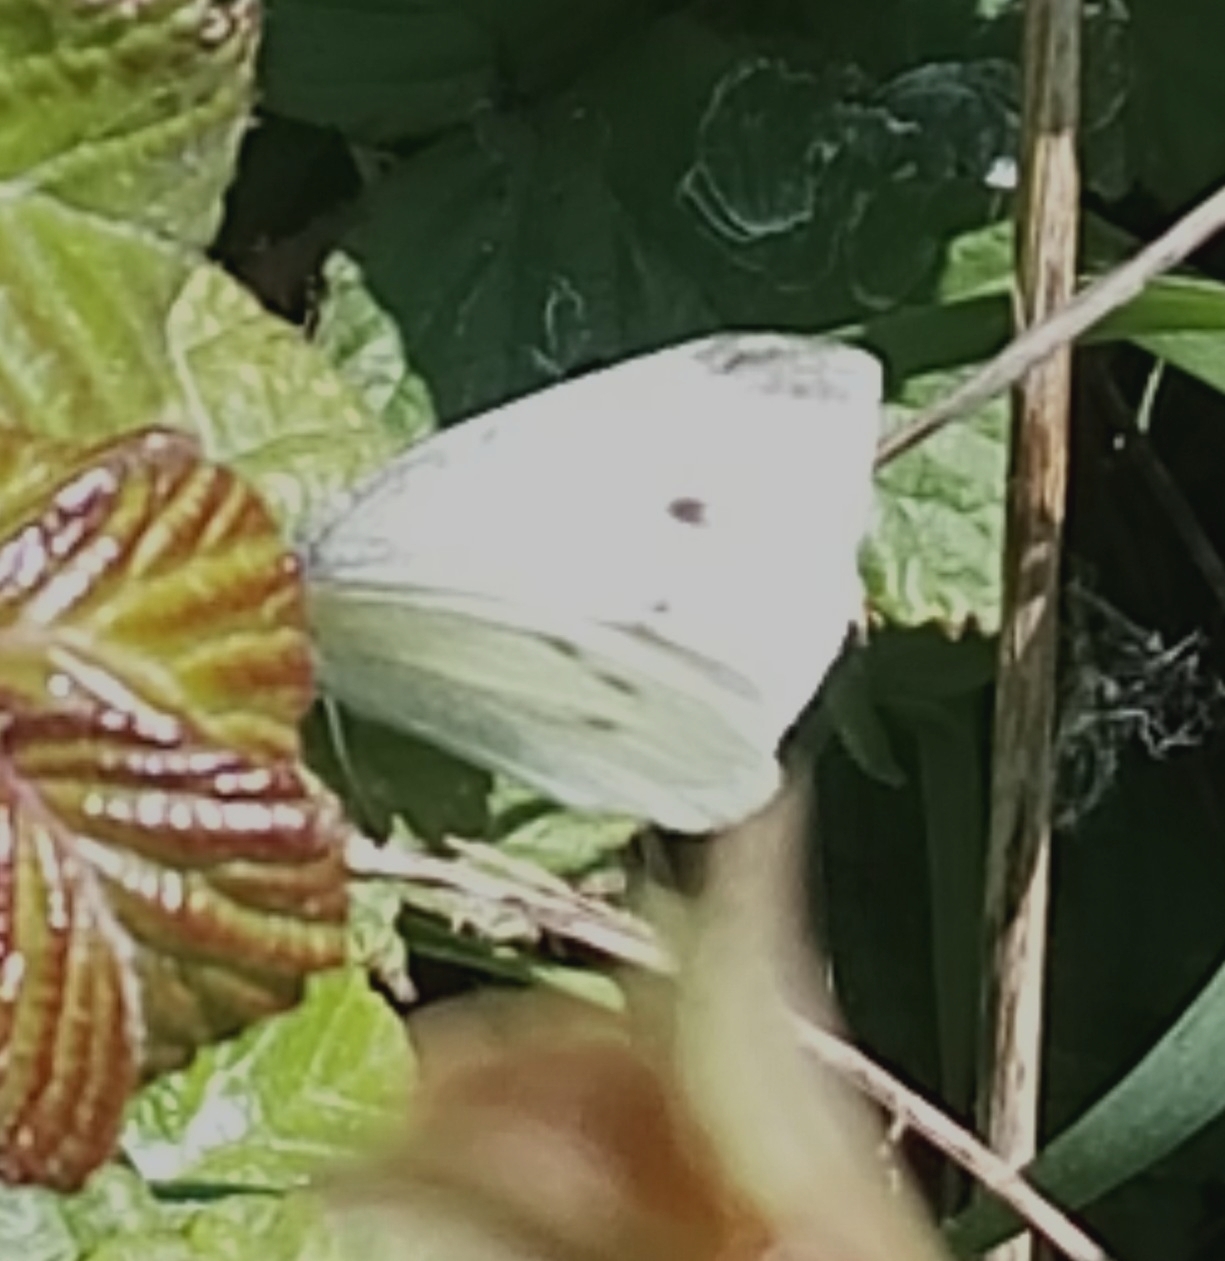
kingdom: Animalia
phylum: Arthropoda
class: Insecta
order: Lepidoptera
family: Pieridae
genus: Pieris
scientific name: Pieris rapae
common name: Small white
